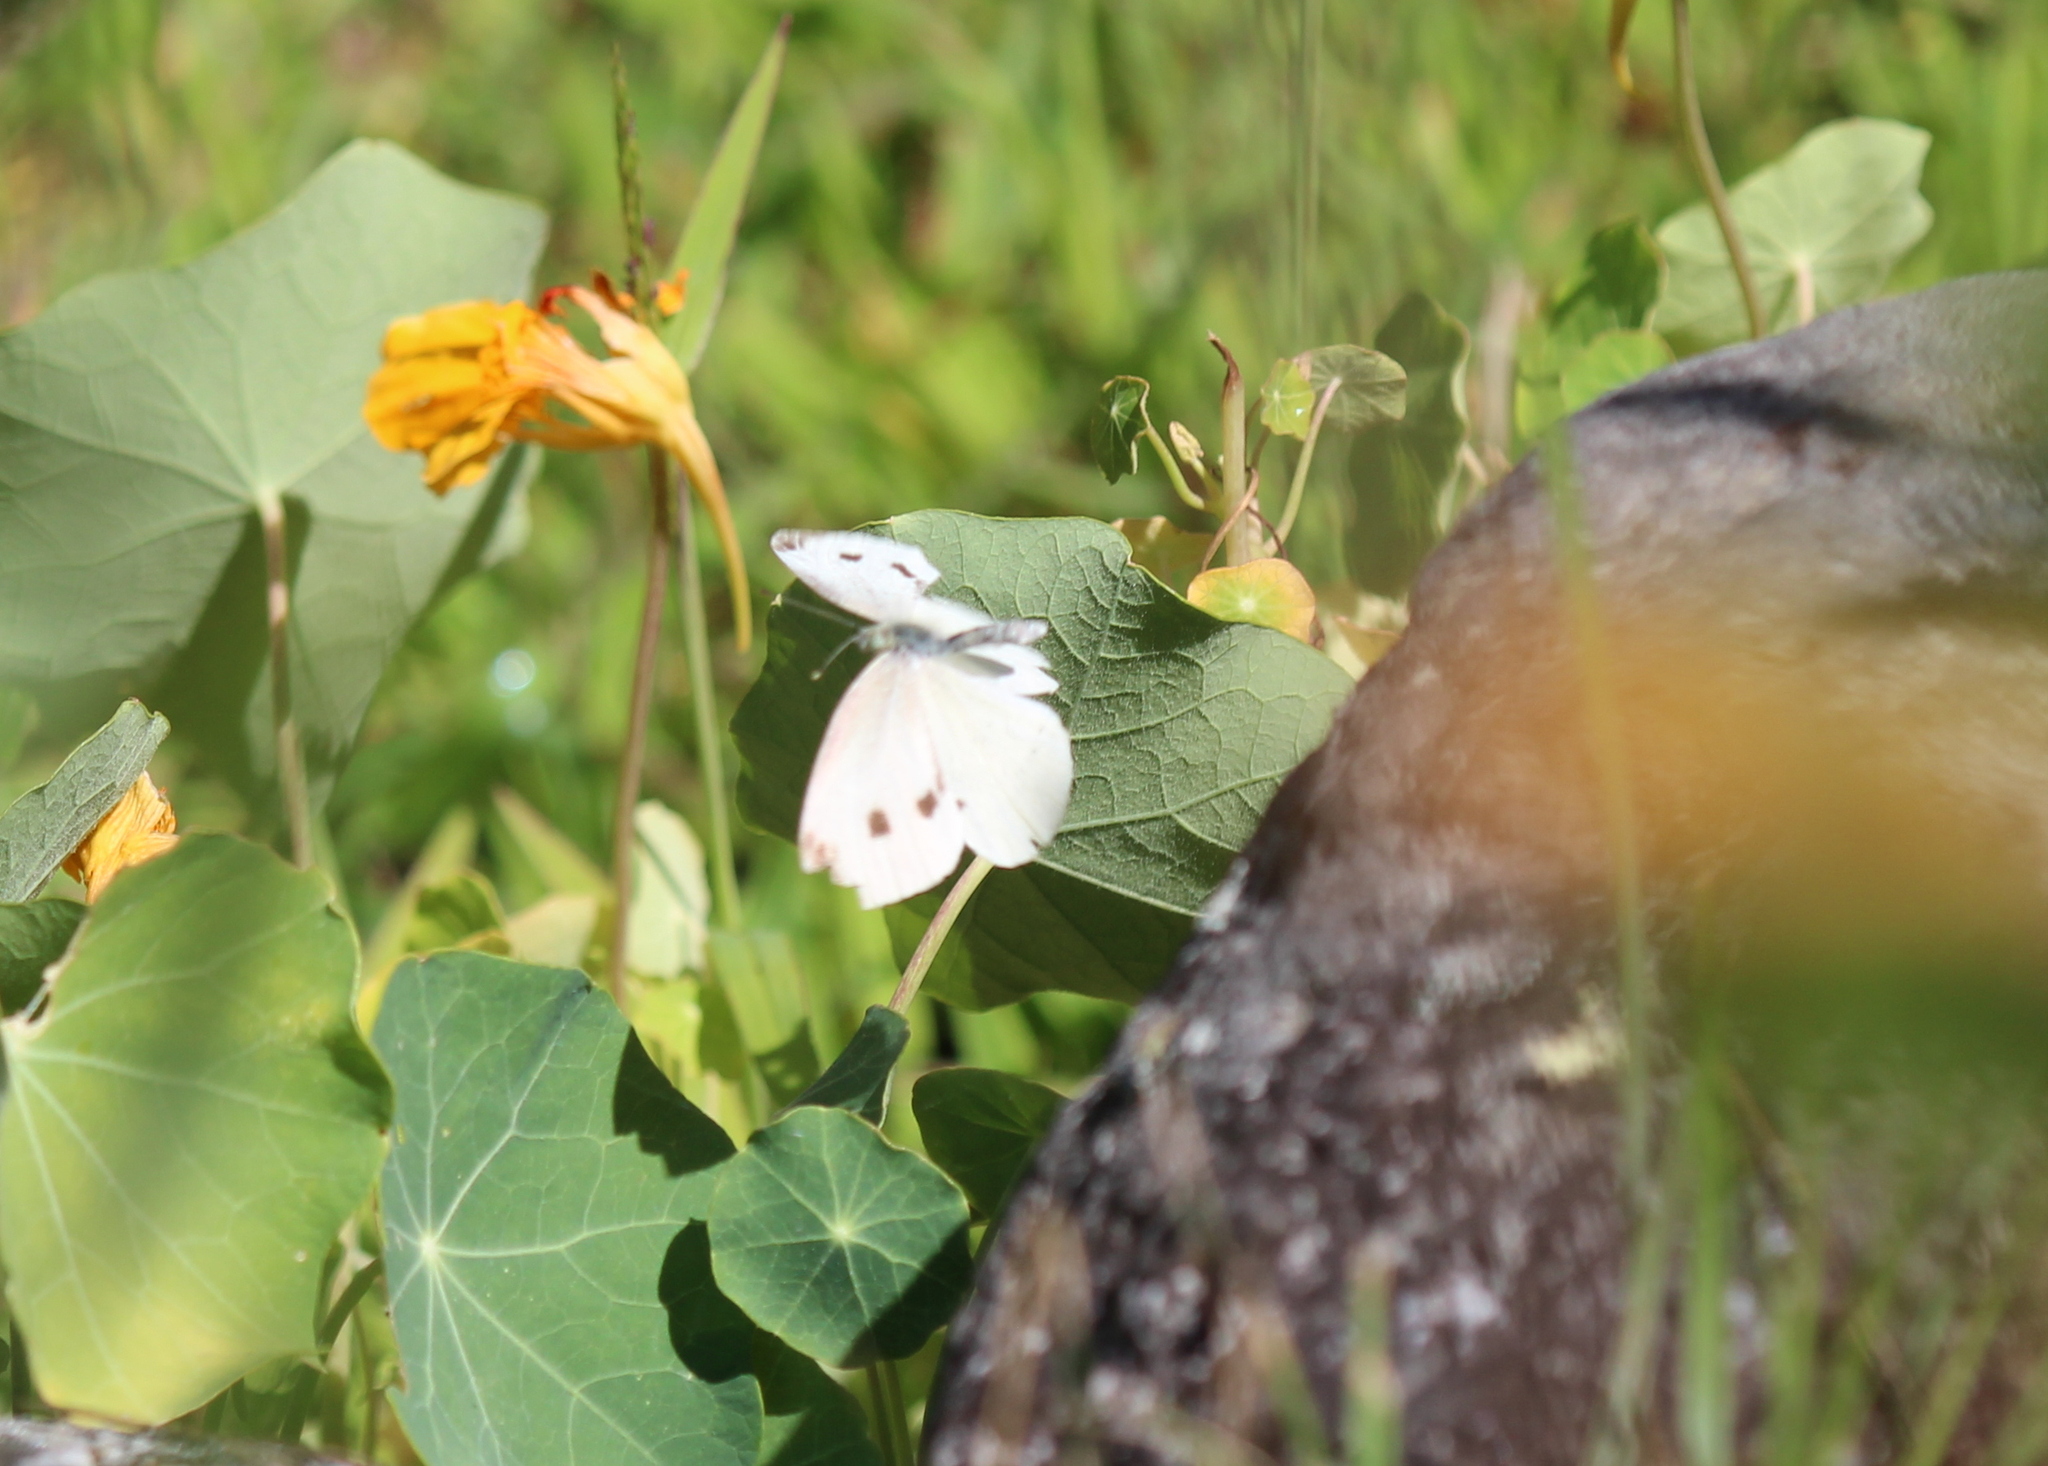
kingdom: Animalia
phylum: Arthropoda
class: Insecta
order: Lepidoptera
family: Pieridae
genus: Pieris
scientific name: Pieris rapae
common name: Small white
